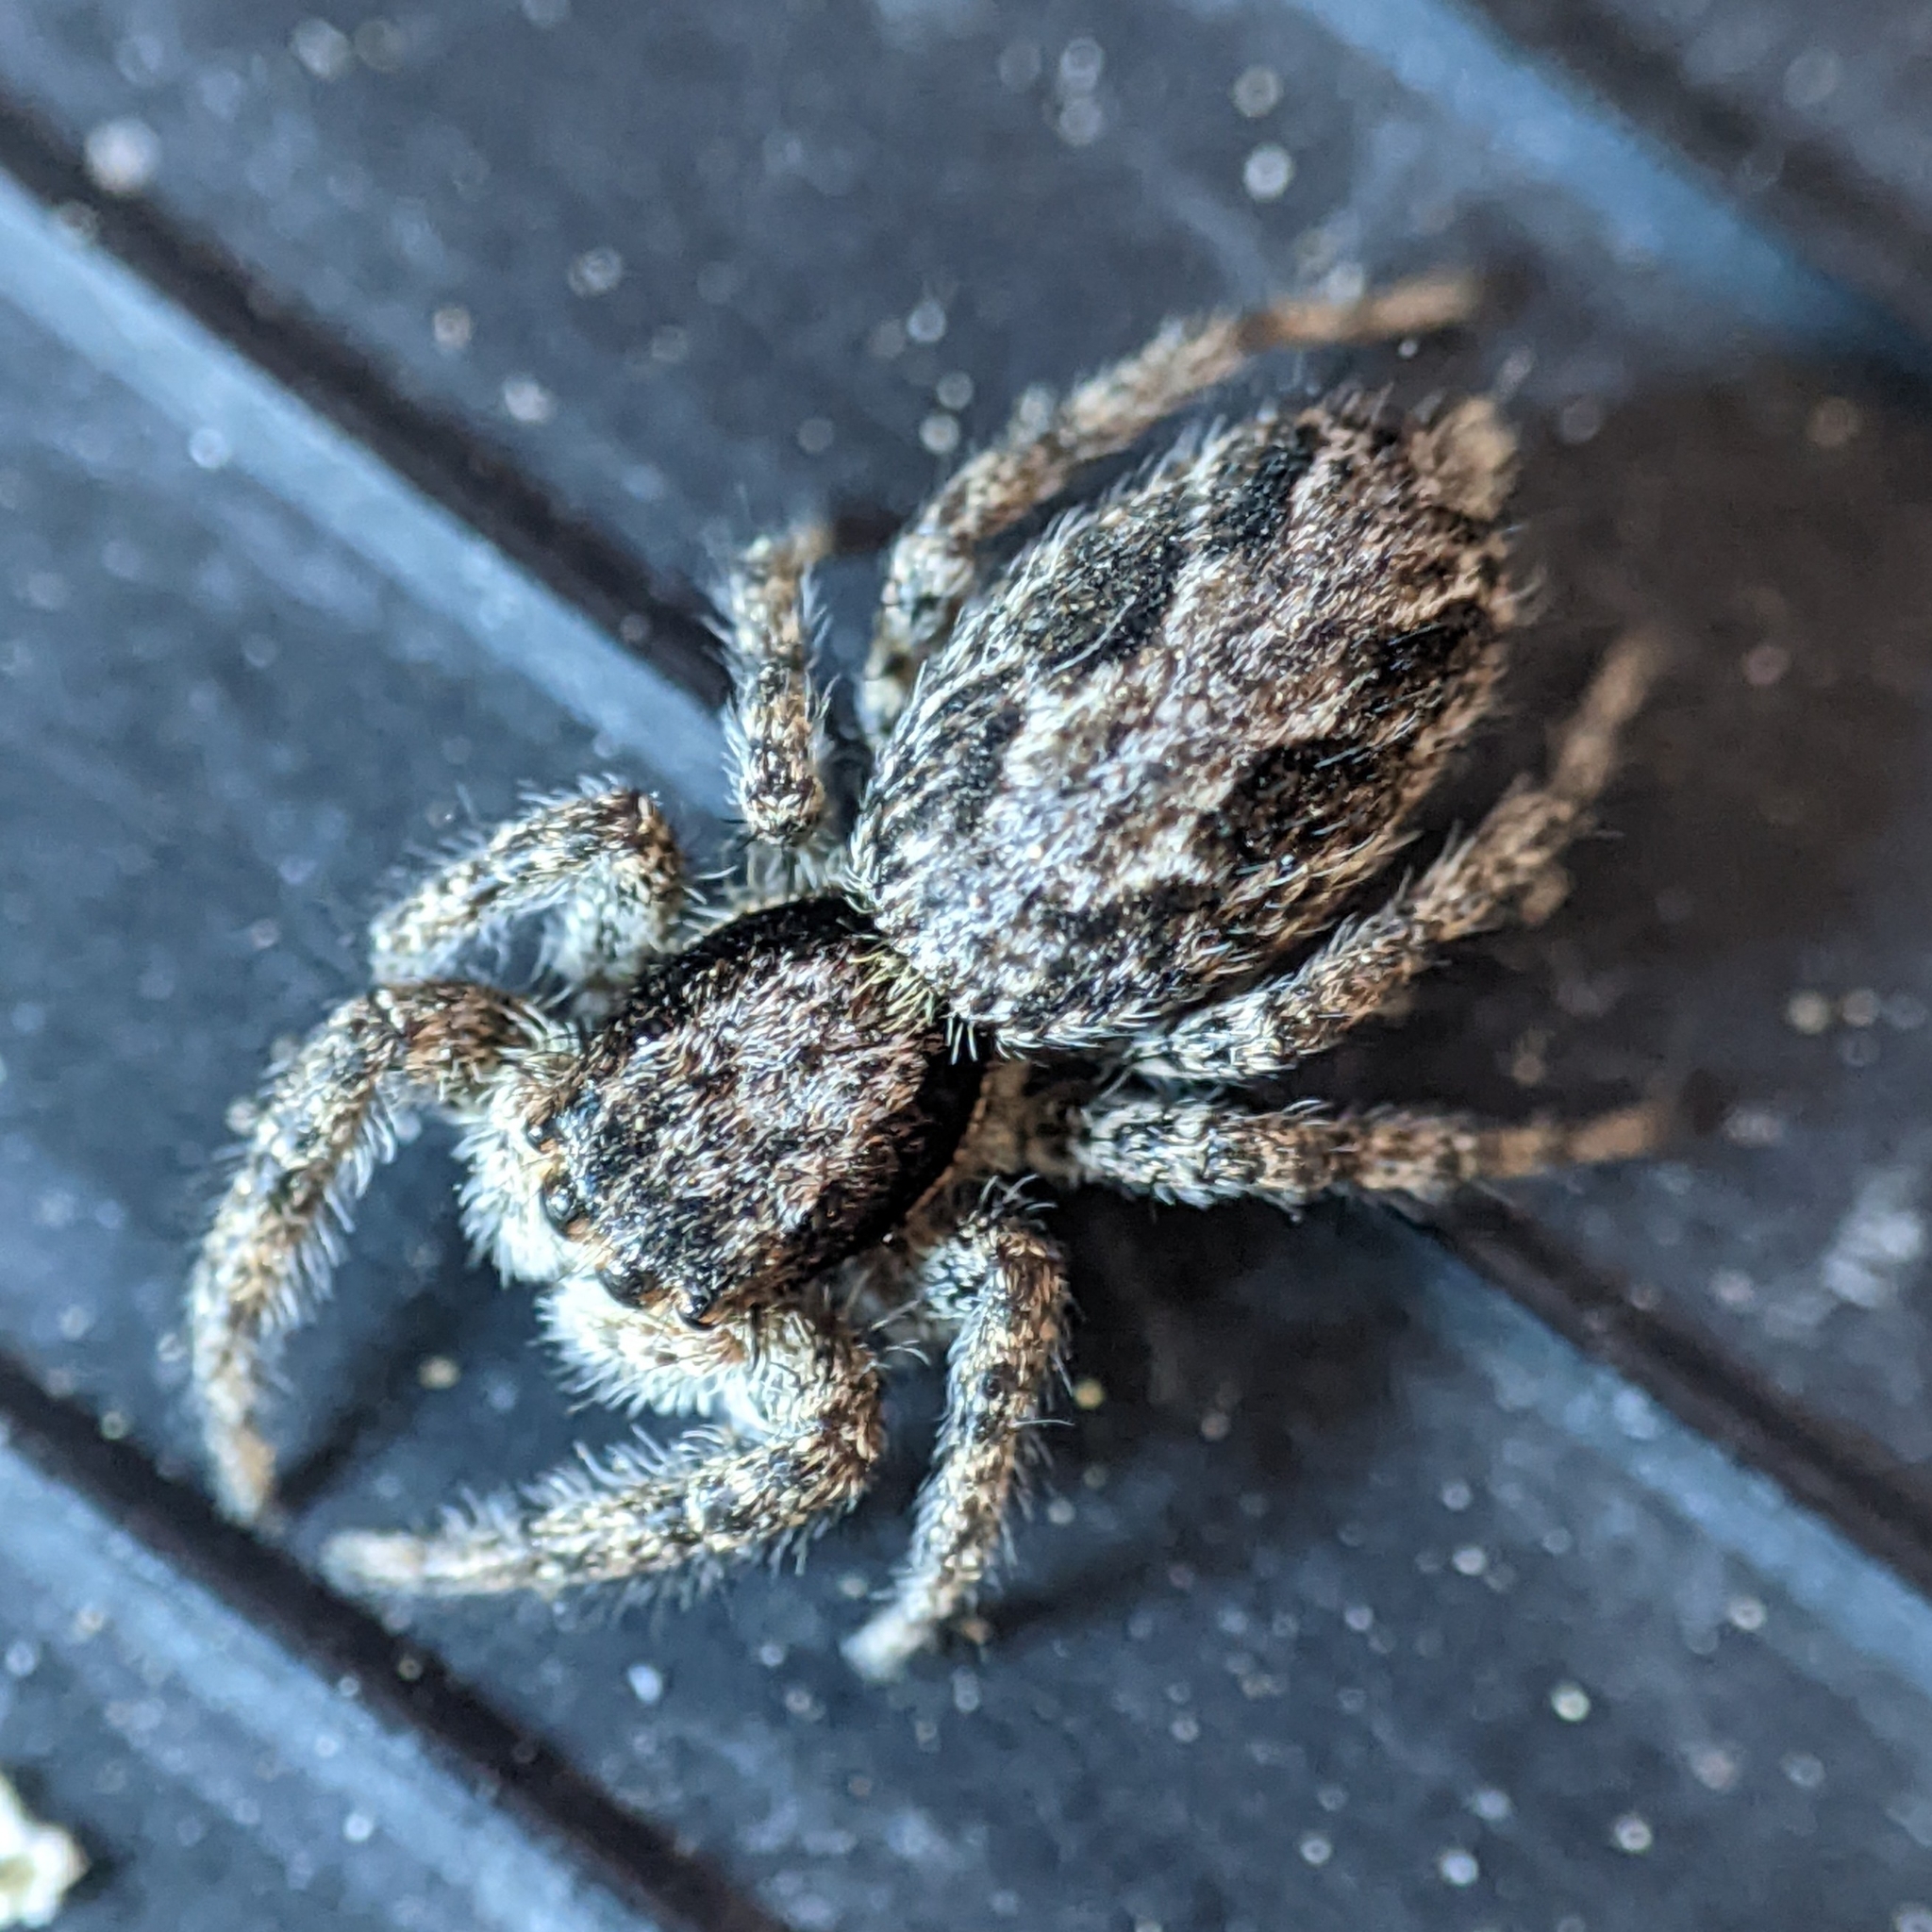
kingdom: Animalia
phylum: Arthropoda
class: Arachnida
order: Araneae
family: Salticidae
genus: Platycryptus
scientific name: Platycryptus californicus
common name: Jumping spiders
